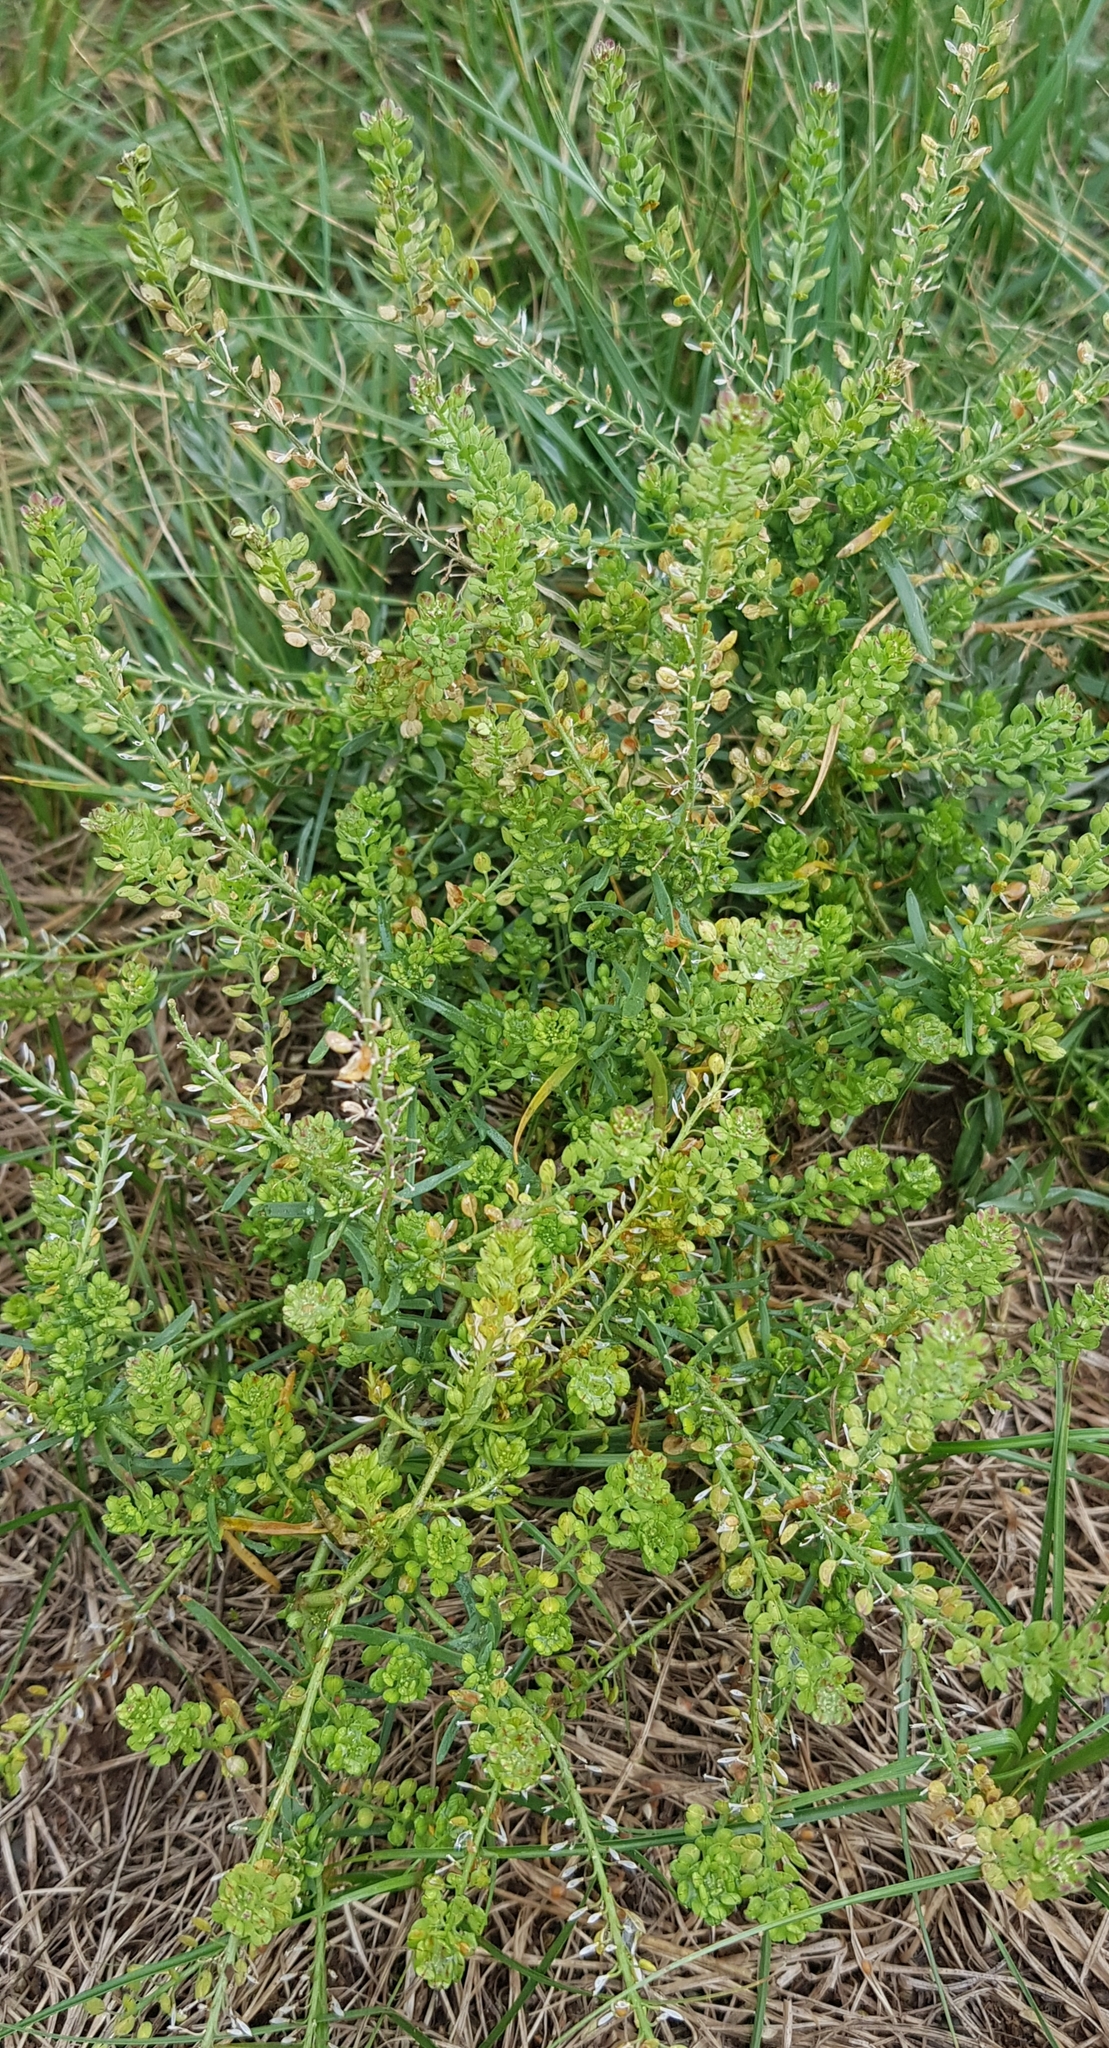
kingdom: Plantae
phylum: Tracheophyta
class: Magnoliopsida
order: Brassicales
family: Brassicaceae
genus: Lepidium
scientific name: Lepidium densiflorum
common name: Miner's pepperwort
